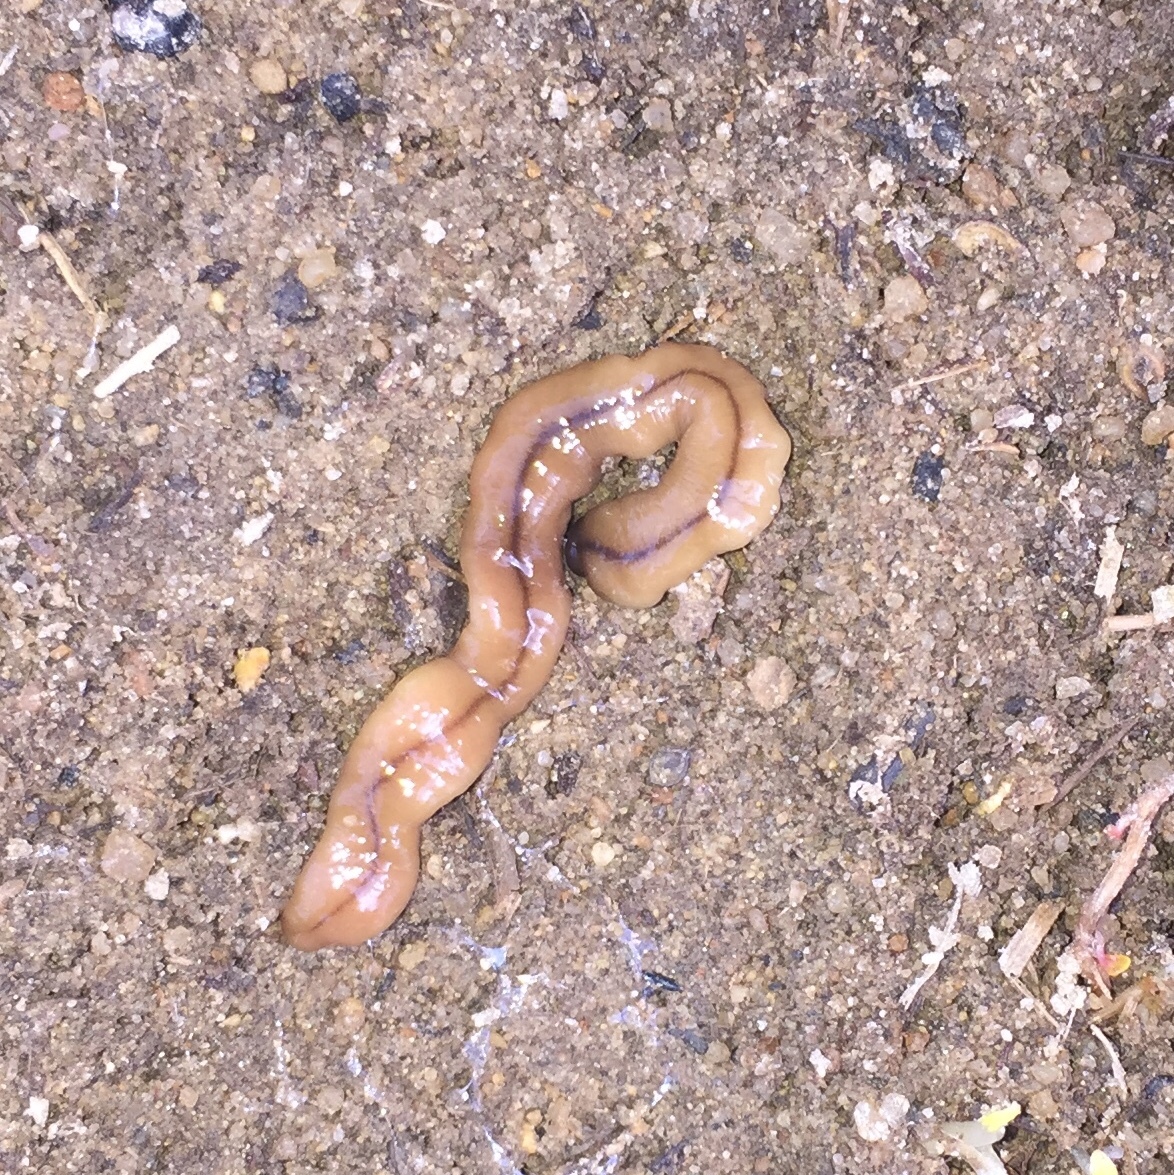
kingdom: Animalia
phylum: Platyhelminthes
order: Tricladida
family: Geoplanidae
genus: Bipalium
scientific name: Bipalium adventitium
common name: Land planarian
